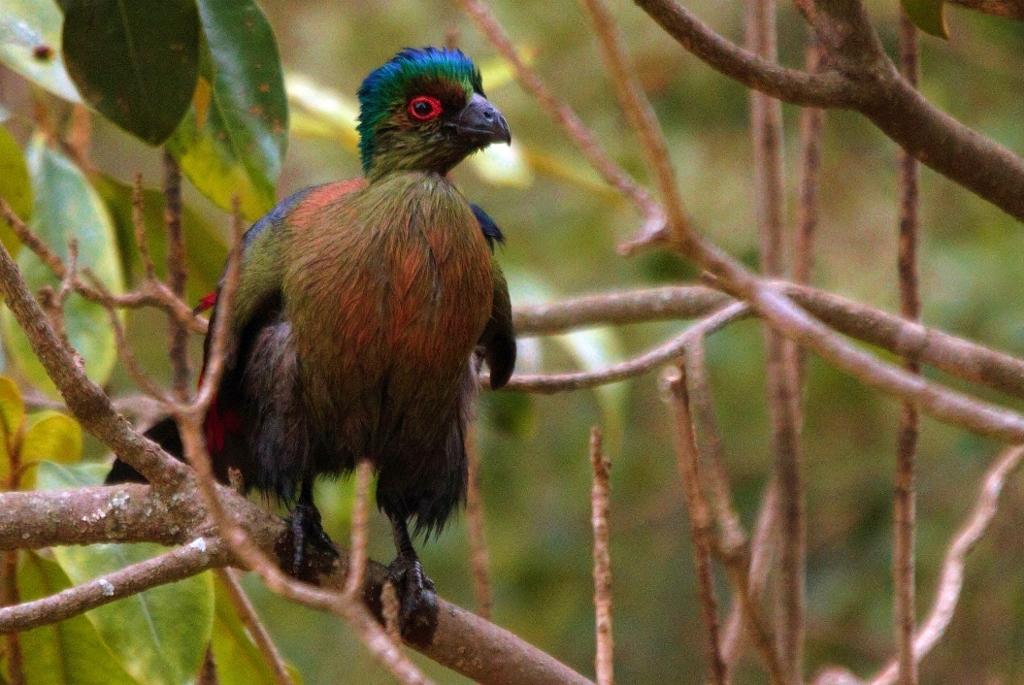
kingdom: Animalia
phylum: Chordata
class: Aves
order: Musophagiformes
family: Musophagidae
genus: Tauraco
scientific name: Tauraco porphyreolophus
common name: Purple-crested turaco
